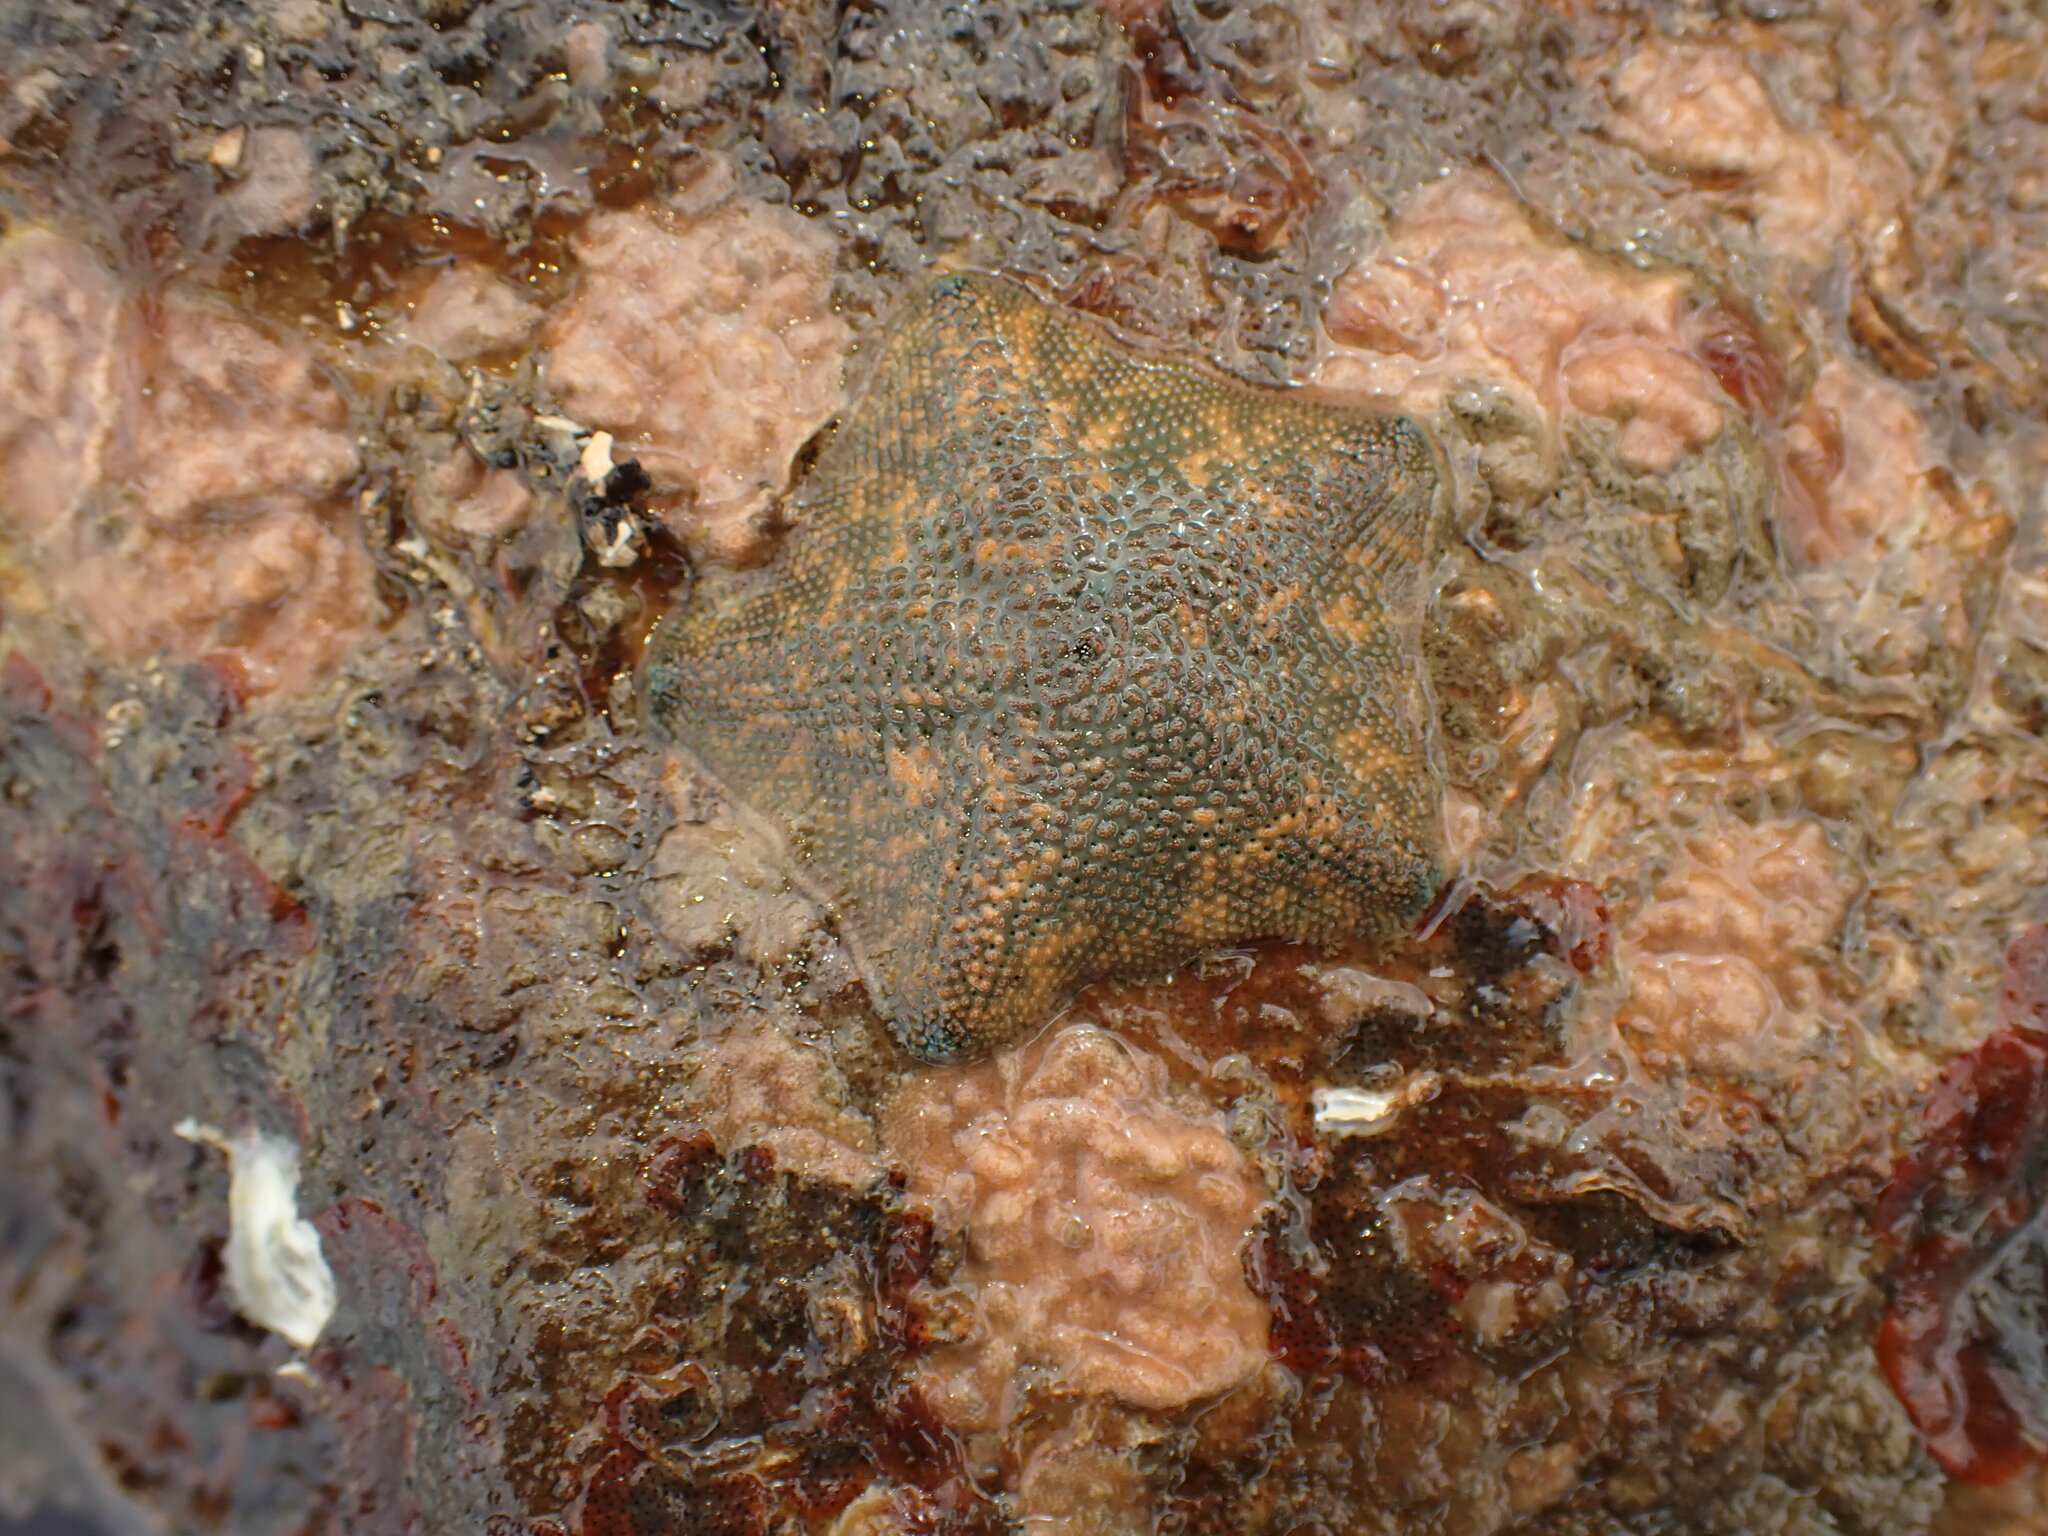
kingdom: Animalia
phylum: Echinodermata
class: Asteroidea
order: Valvatida
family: Asterinidae
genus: Patiriella
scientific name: Patiriella regularis
